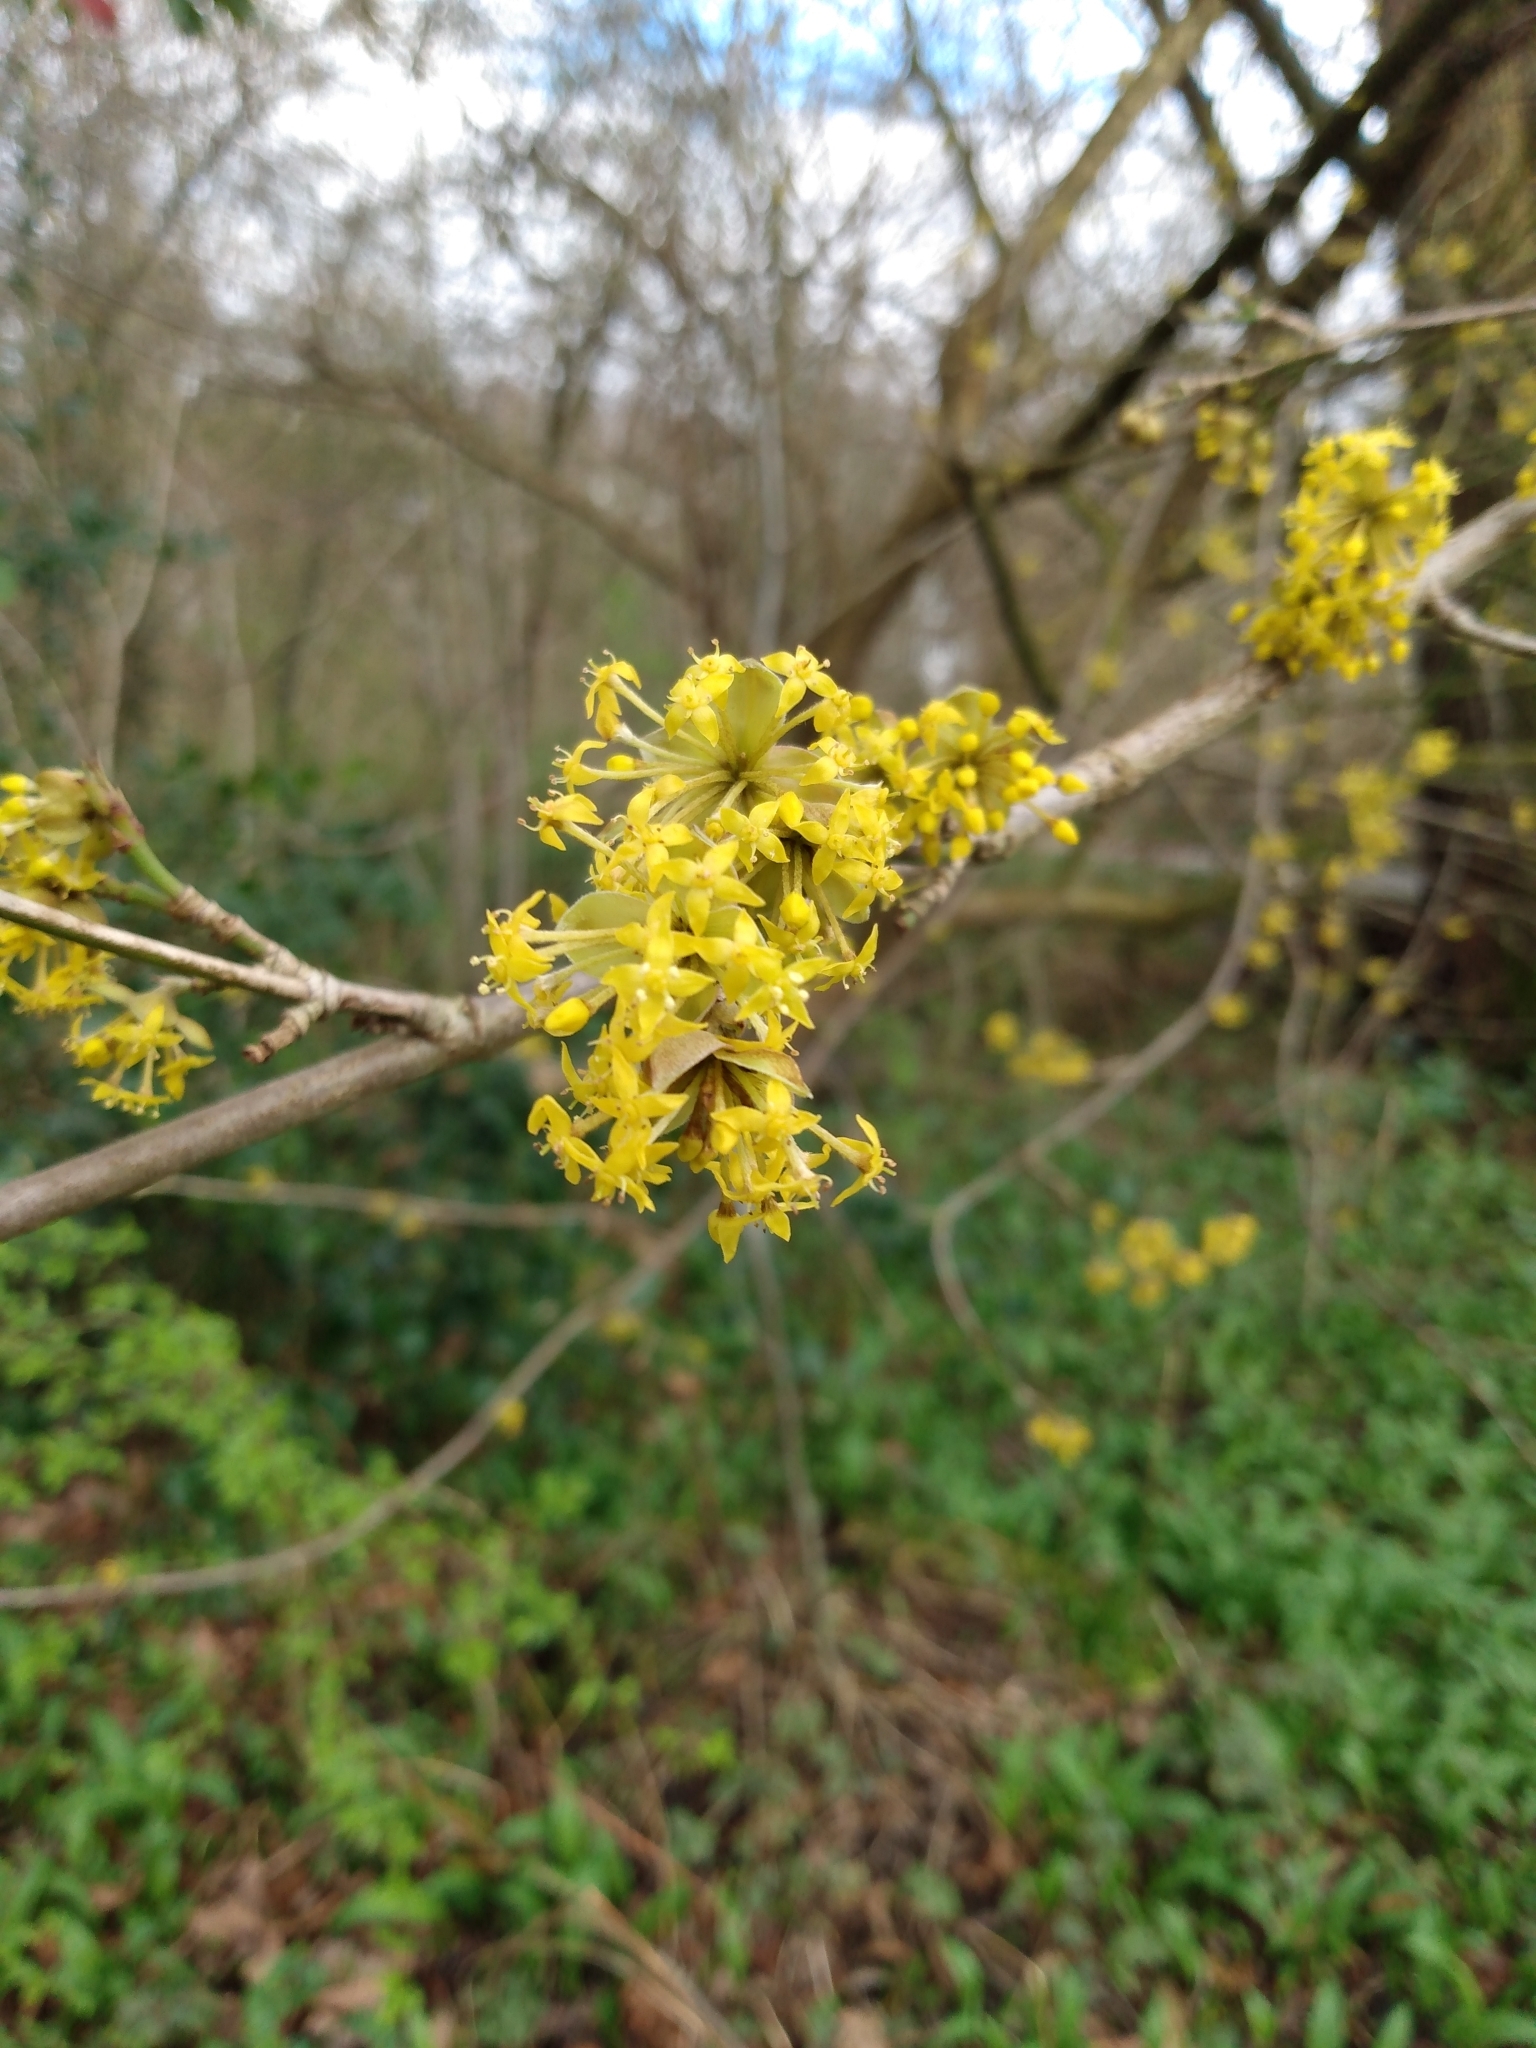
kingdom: Plantae
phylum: Tracheophyta
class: Magnoliopsida
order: Cornales
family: Cornaceae
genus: Cornus
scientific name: Cornus mas
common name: Cornelian-cherry
